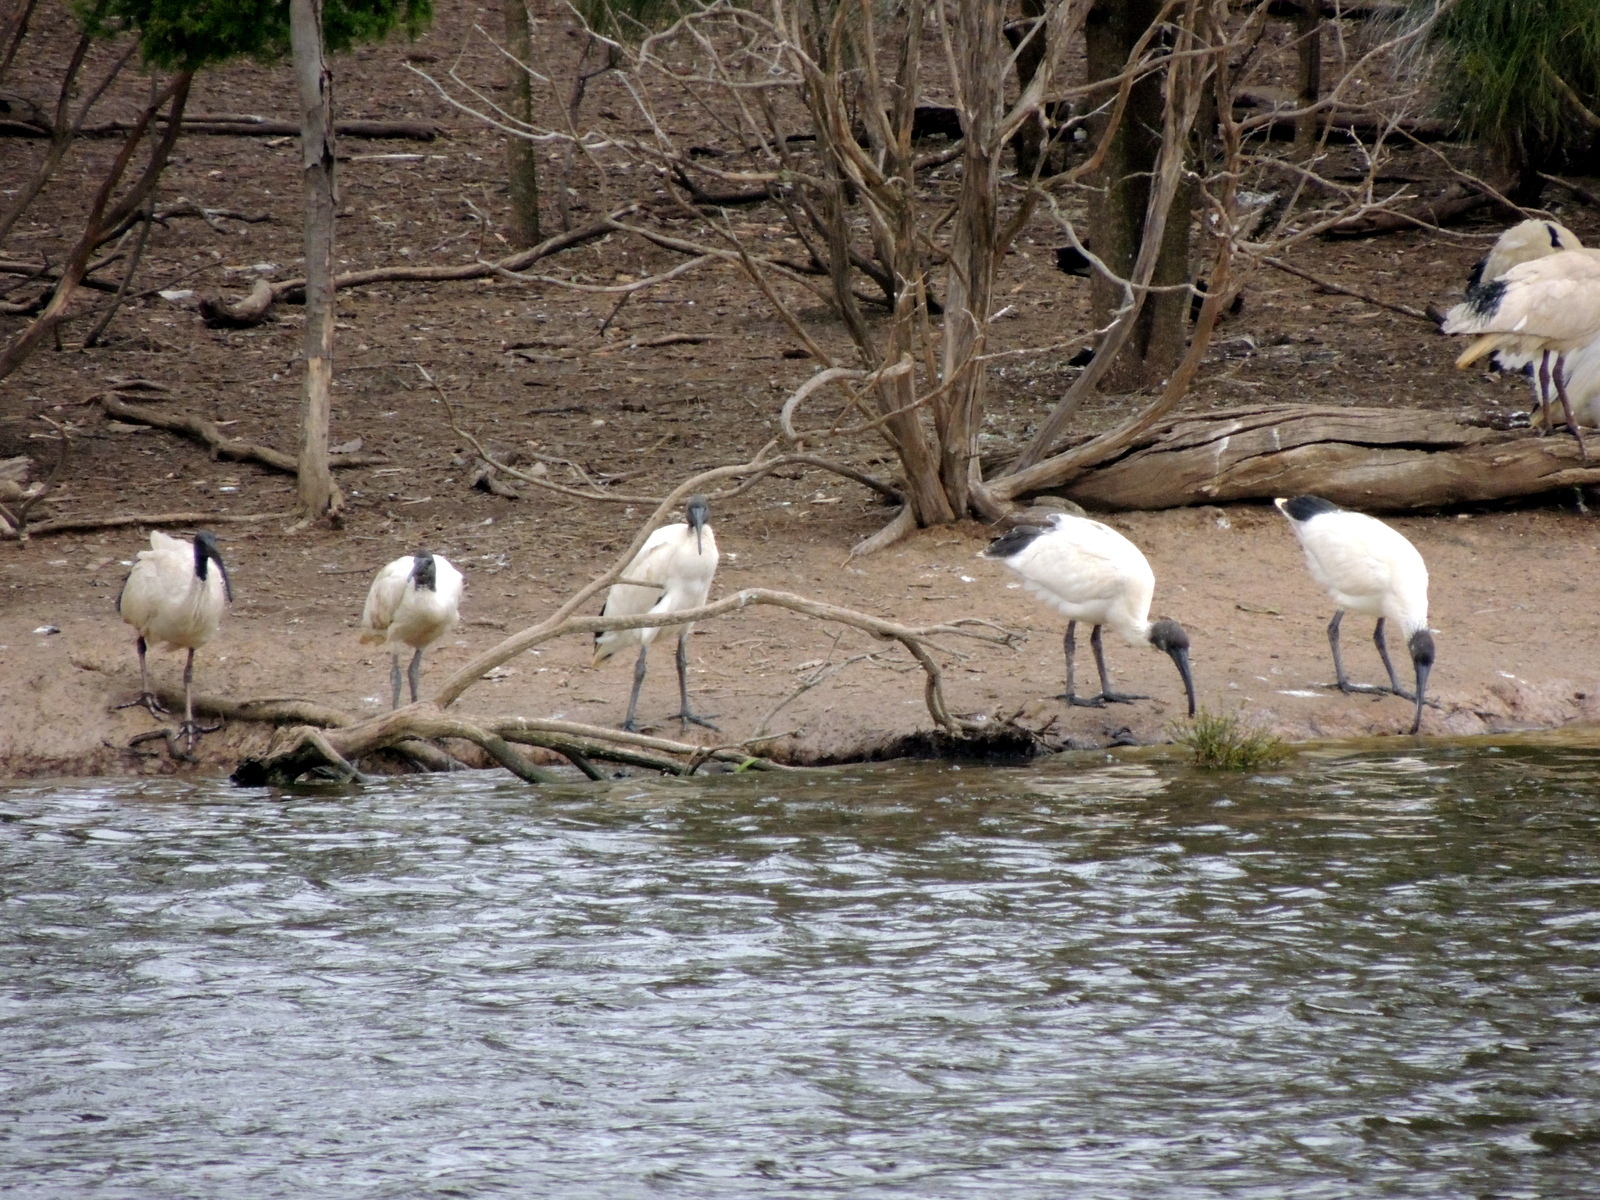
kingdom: Animalia
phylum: Chordata
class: Aves
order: Pelecaniformes
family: Threskiornithidae
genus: Threskiornis
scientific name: Threskiornis molucca
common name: Australian white ibis
